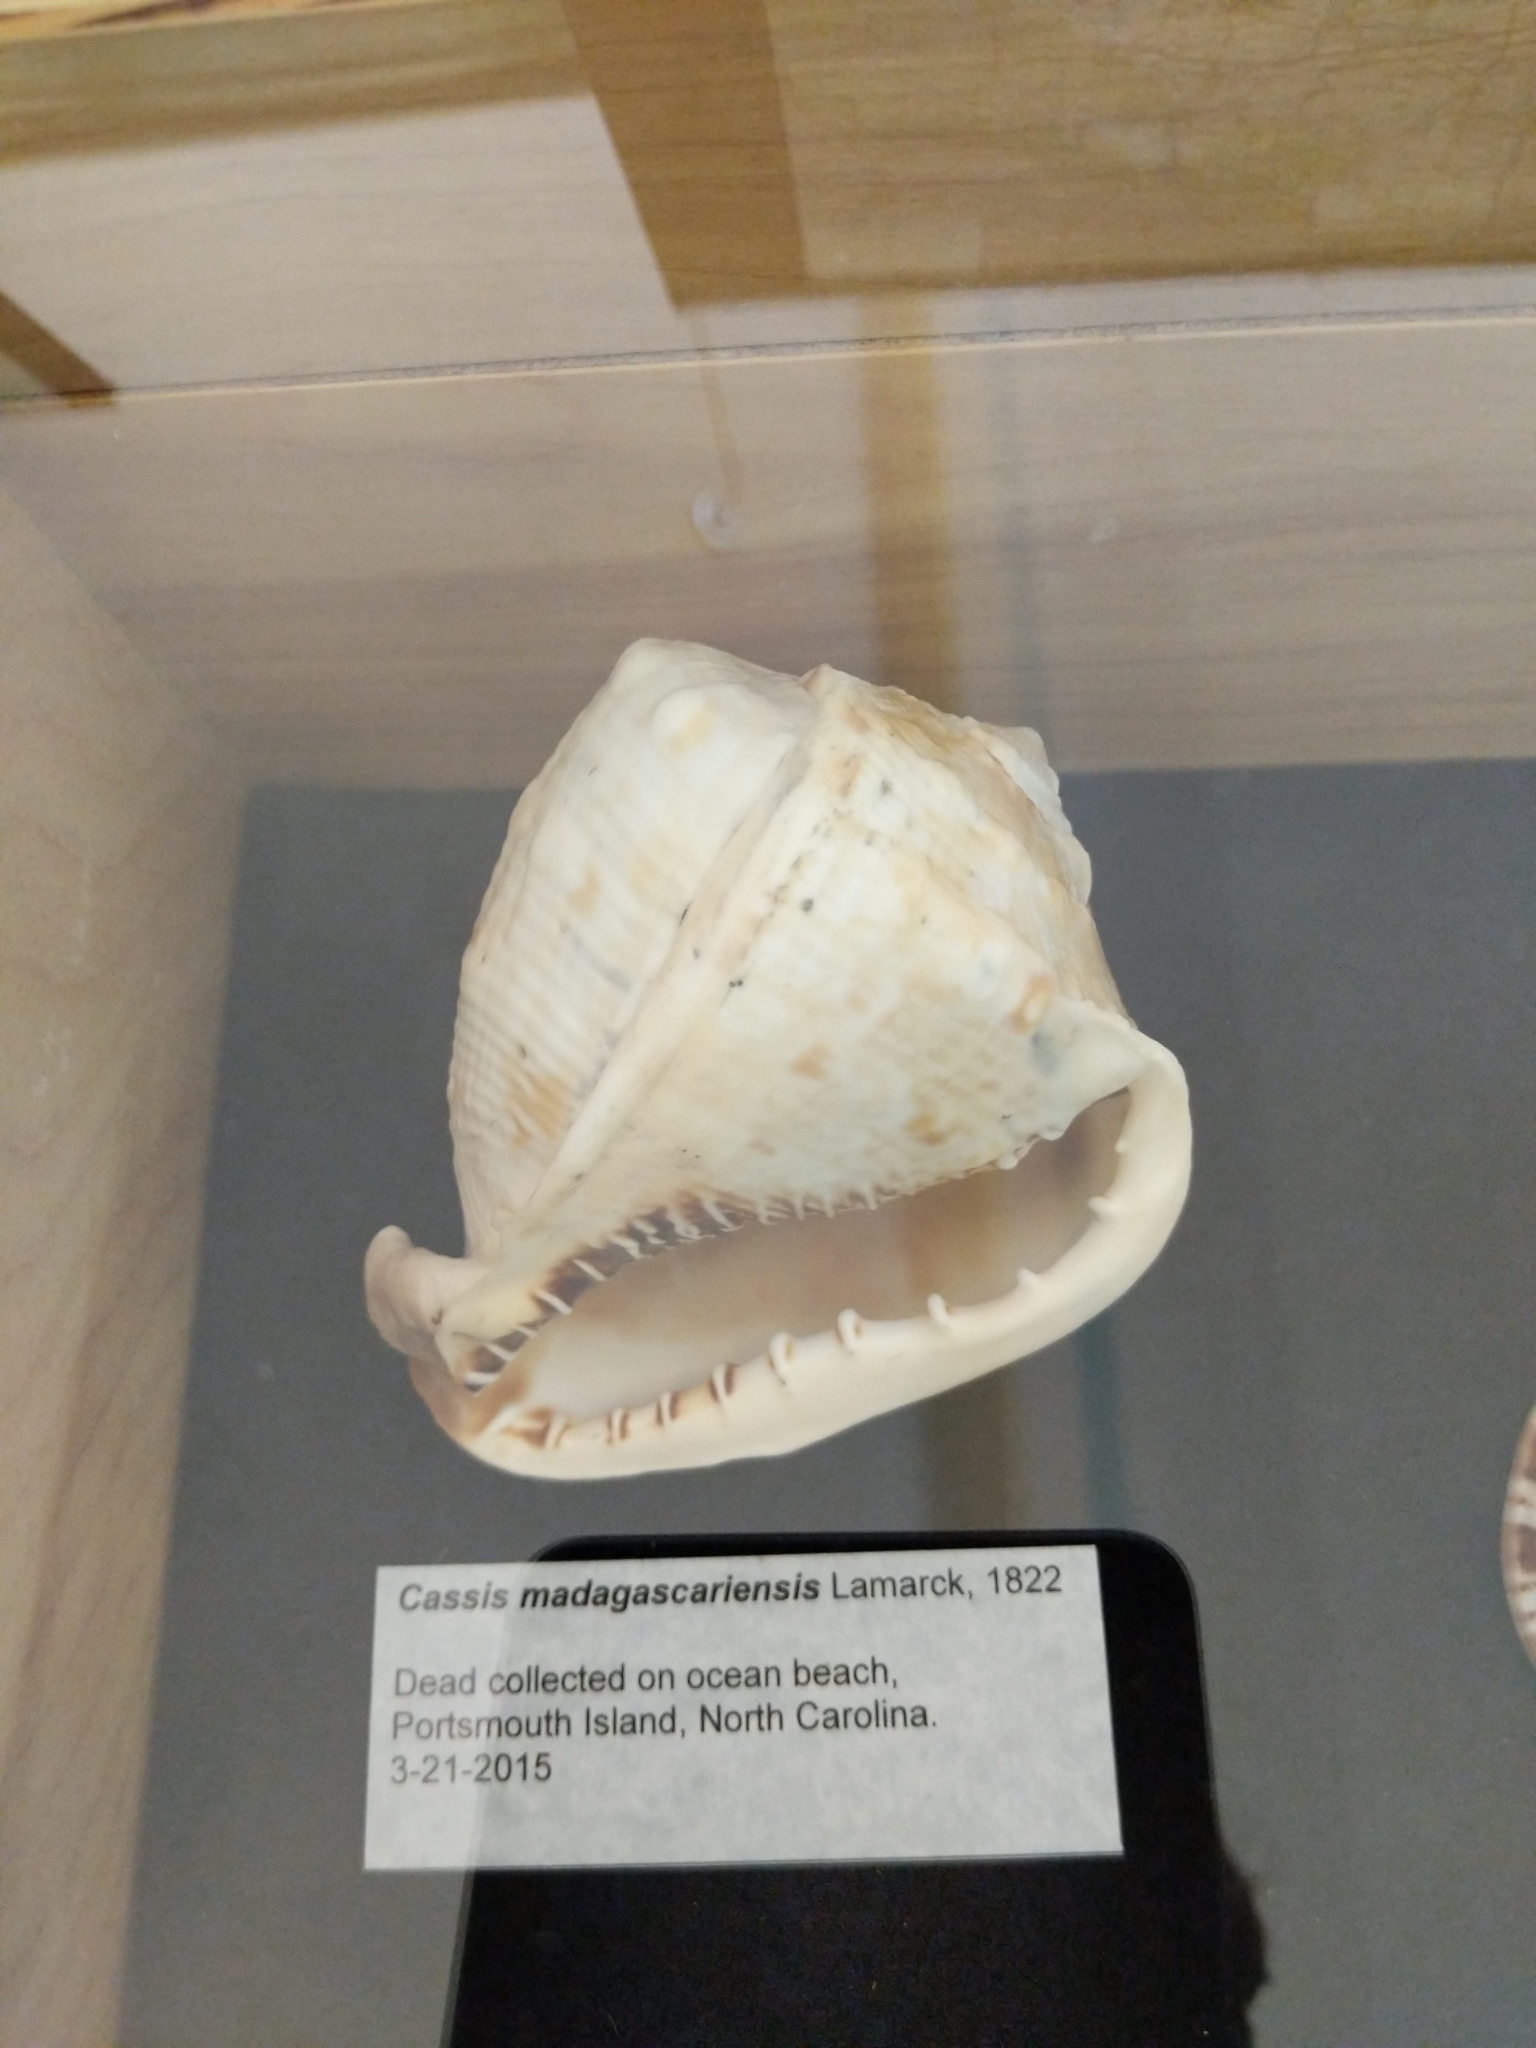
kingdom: Animalia
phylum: Mollusca
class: Gastropoda
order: Littorinimorpha
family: Cassidae
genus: Cassis
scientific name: Cassis madagascariensis
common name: Cameo helmet
